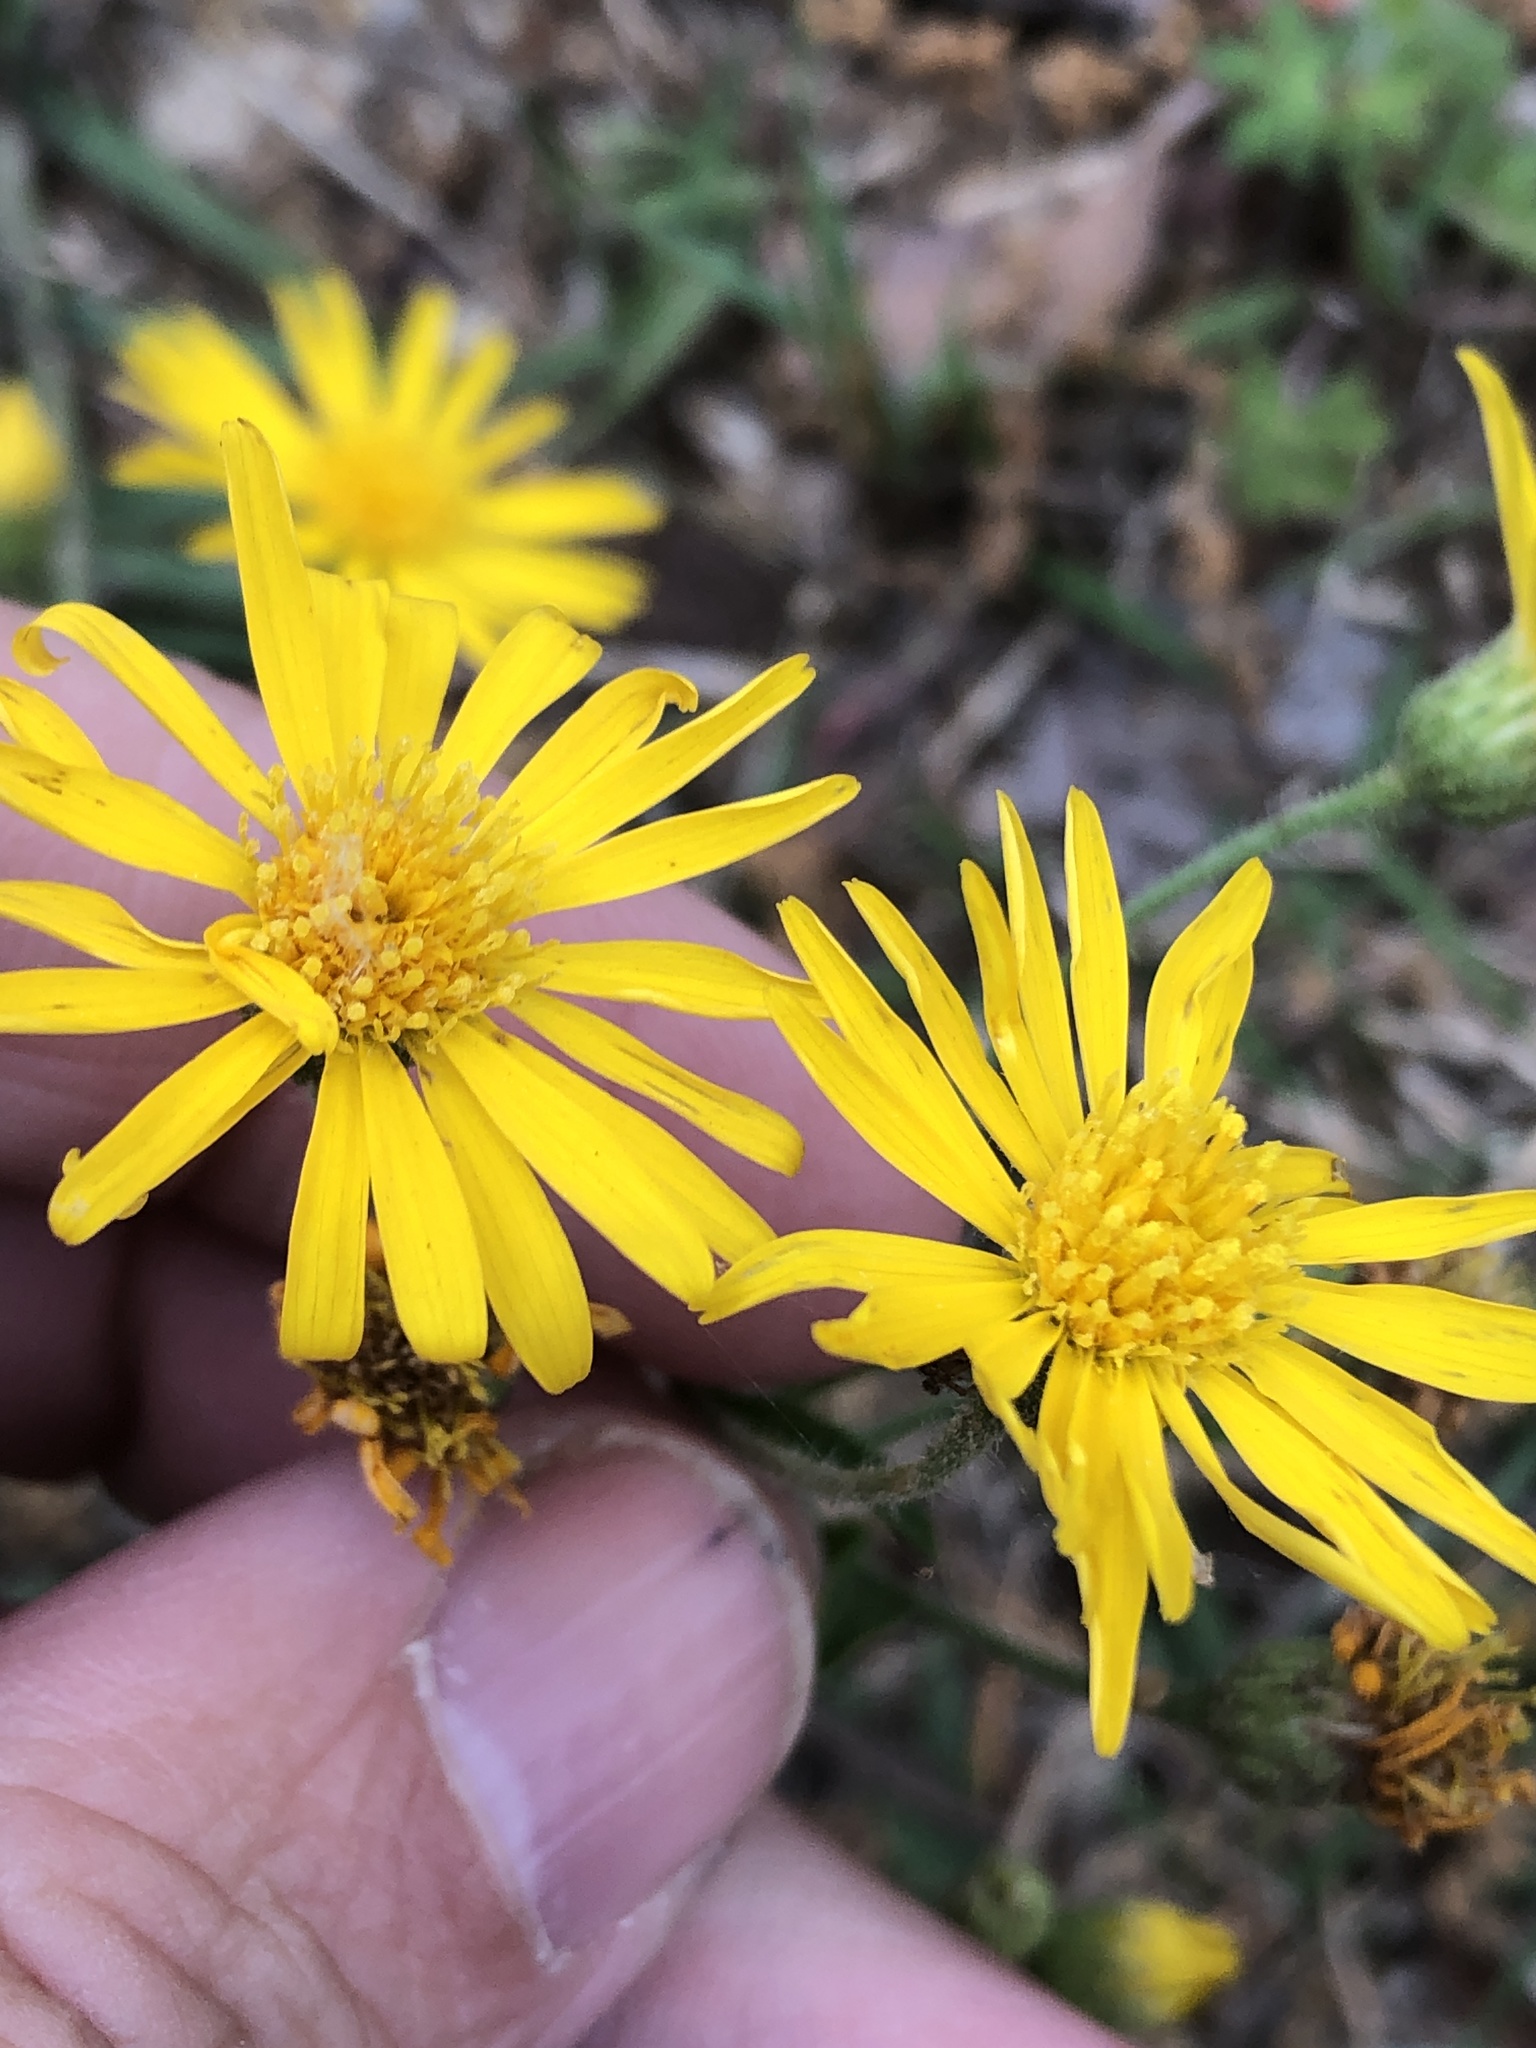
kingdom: Plantae
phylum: Tracheophyta
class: Magnoliopsida
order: Asterales
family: Asteraceae
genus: Heterotheca
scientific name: Heterotheca subaxillaris
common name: Camphorweed
